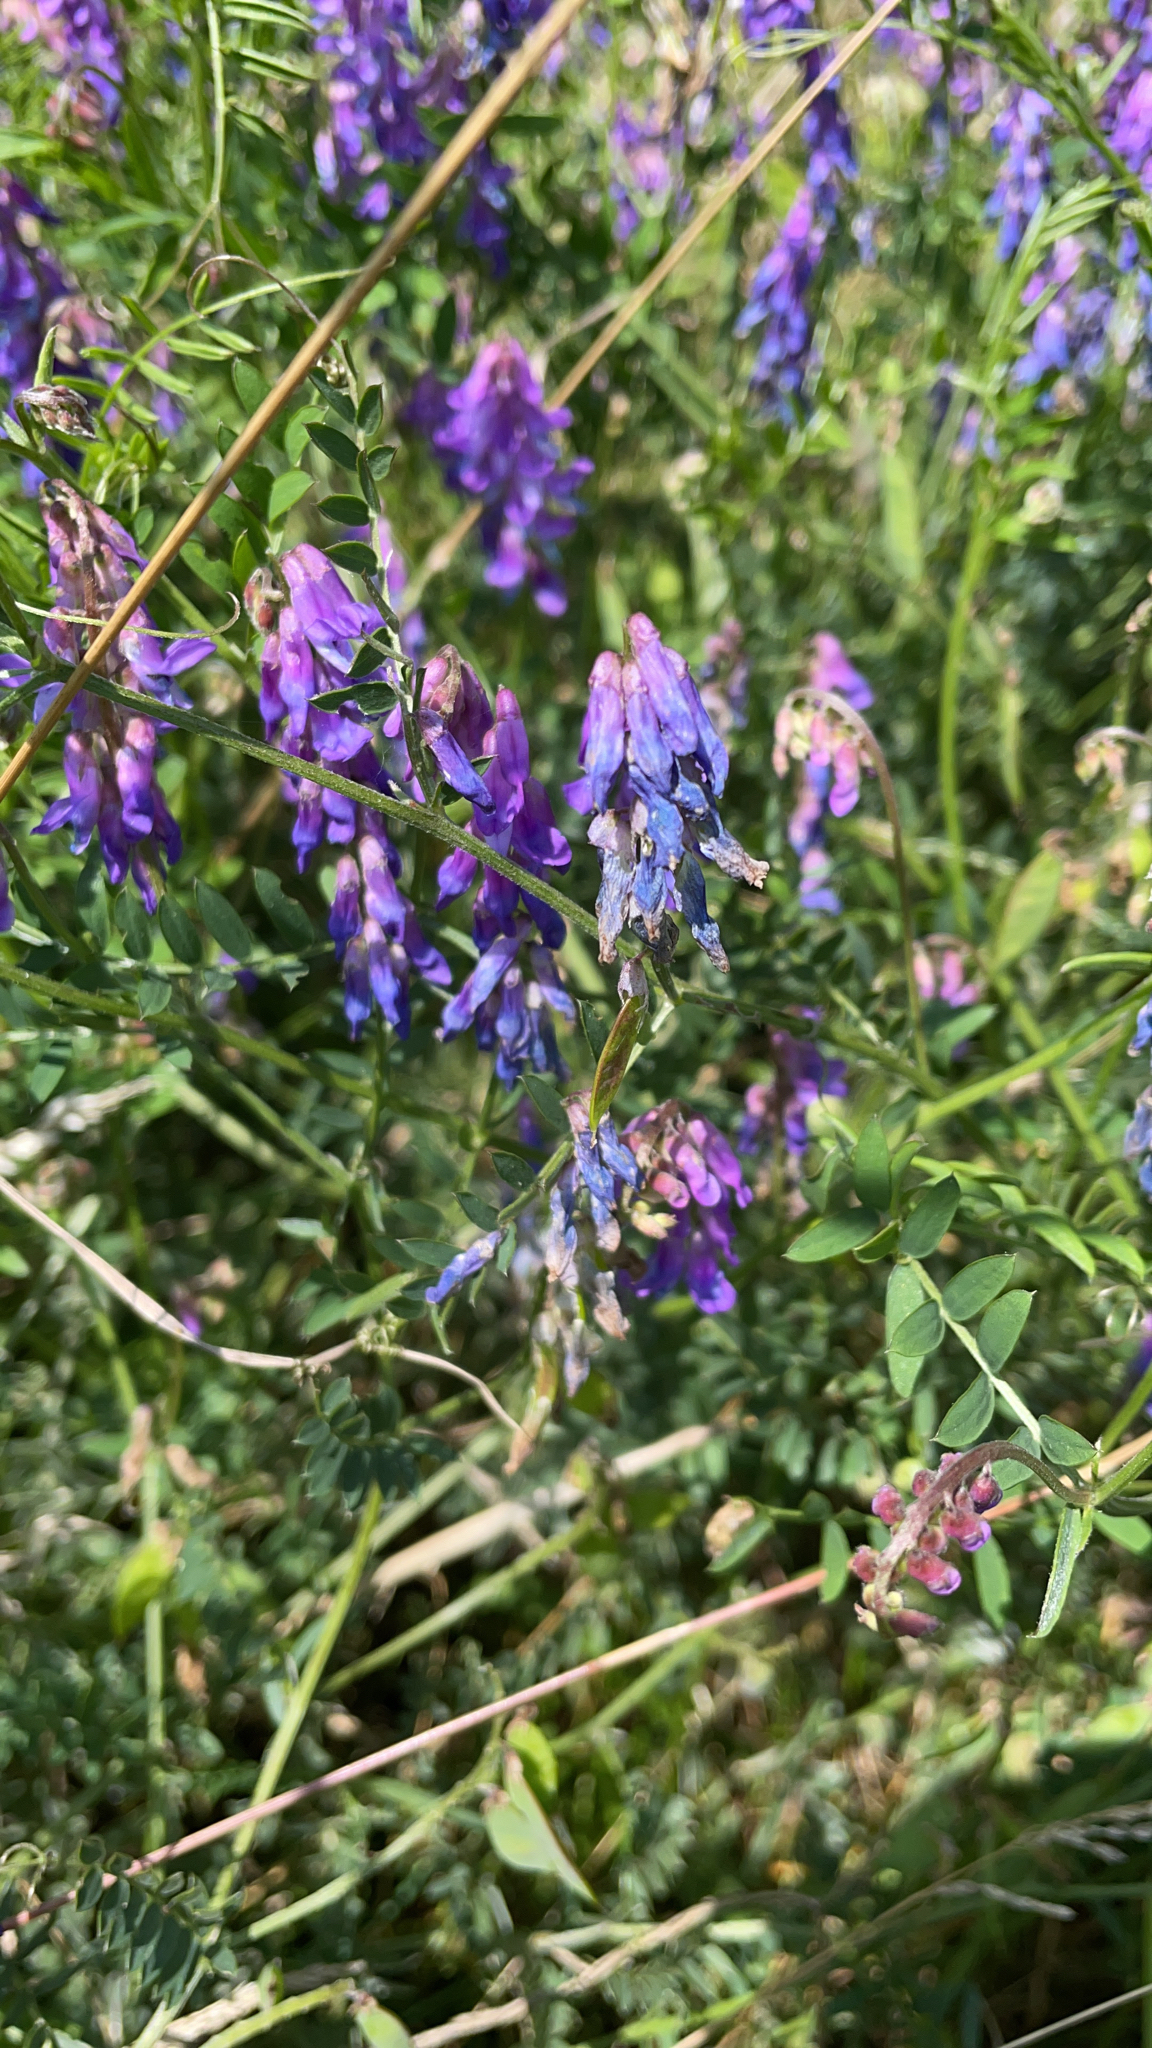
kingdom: Plantae
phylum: Tracheophyta
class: Magnoliopsida
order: Fabales
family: Fabaceae
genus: Vicia
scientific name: Vicia cracca
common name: Bird vetch
